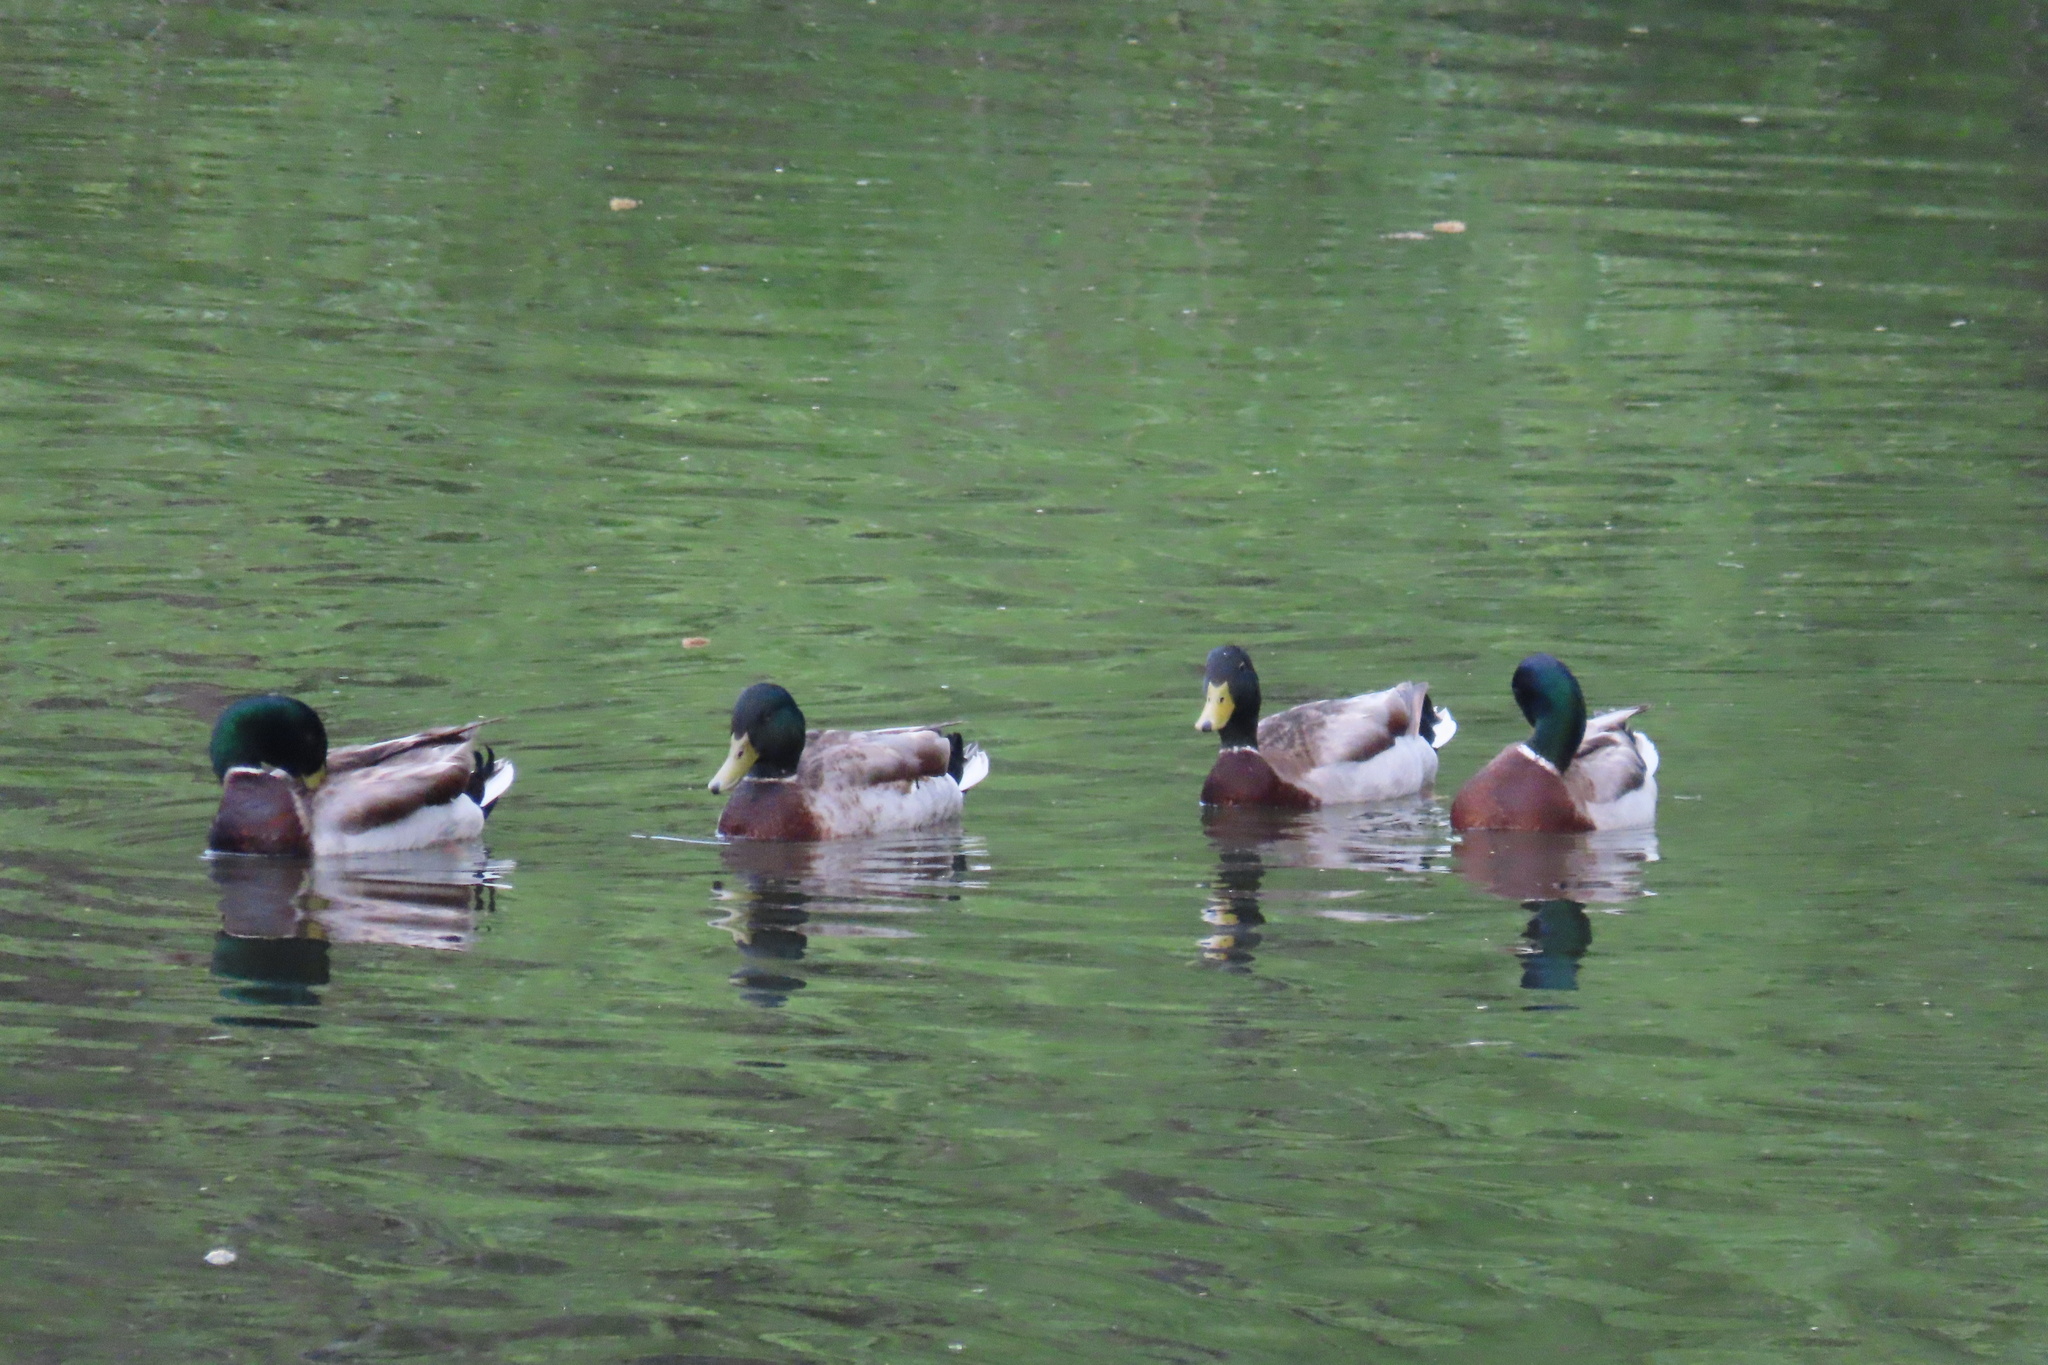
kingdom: Animalia
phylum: Chordata
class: Aves
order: Anseriformes
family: Anatidae
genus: Anas
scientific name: Anas platyrhynchos
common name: Mallard
